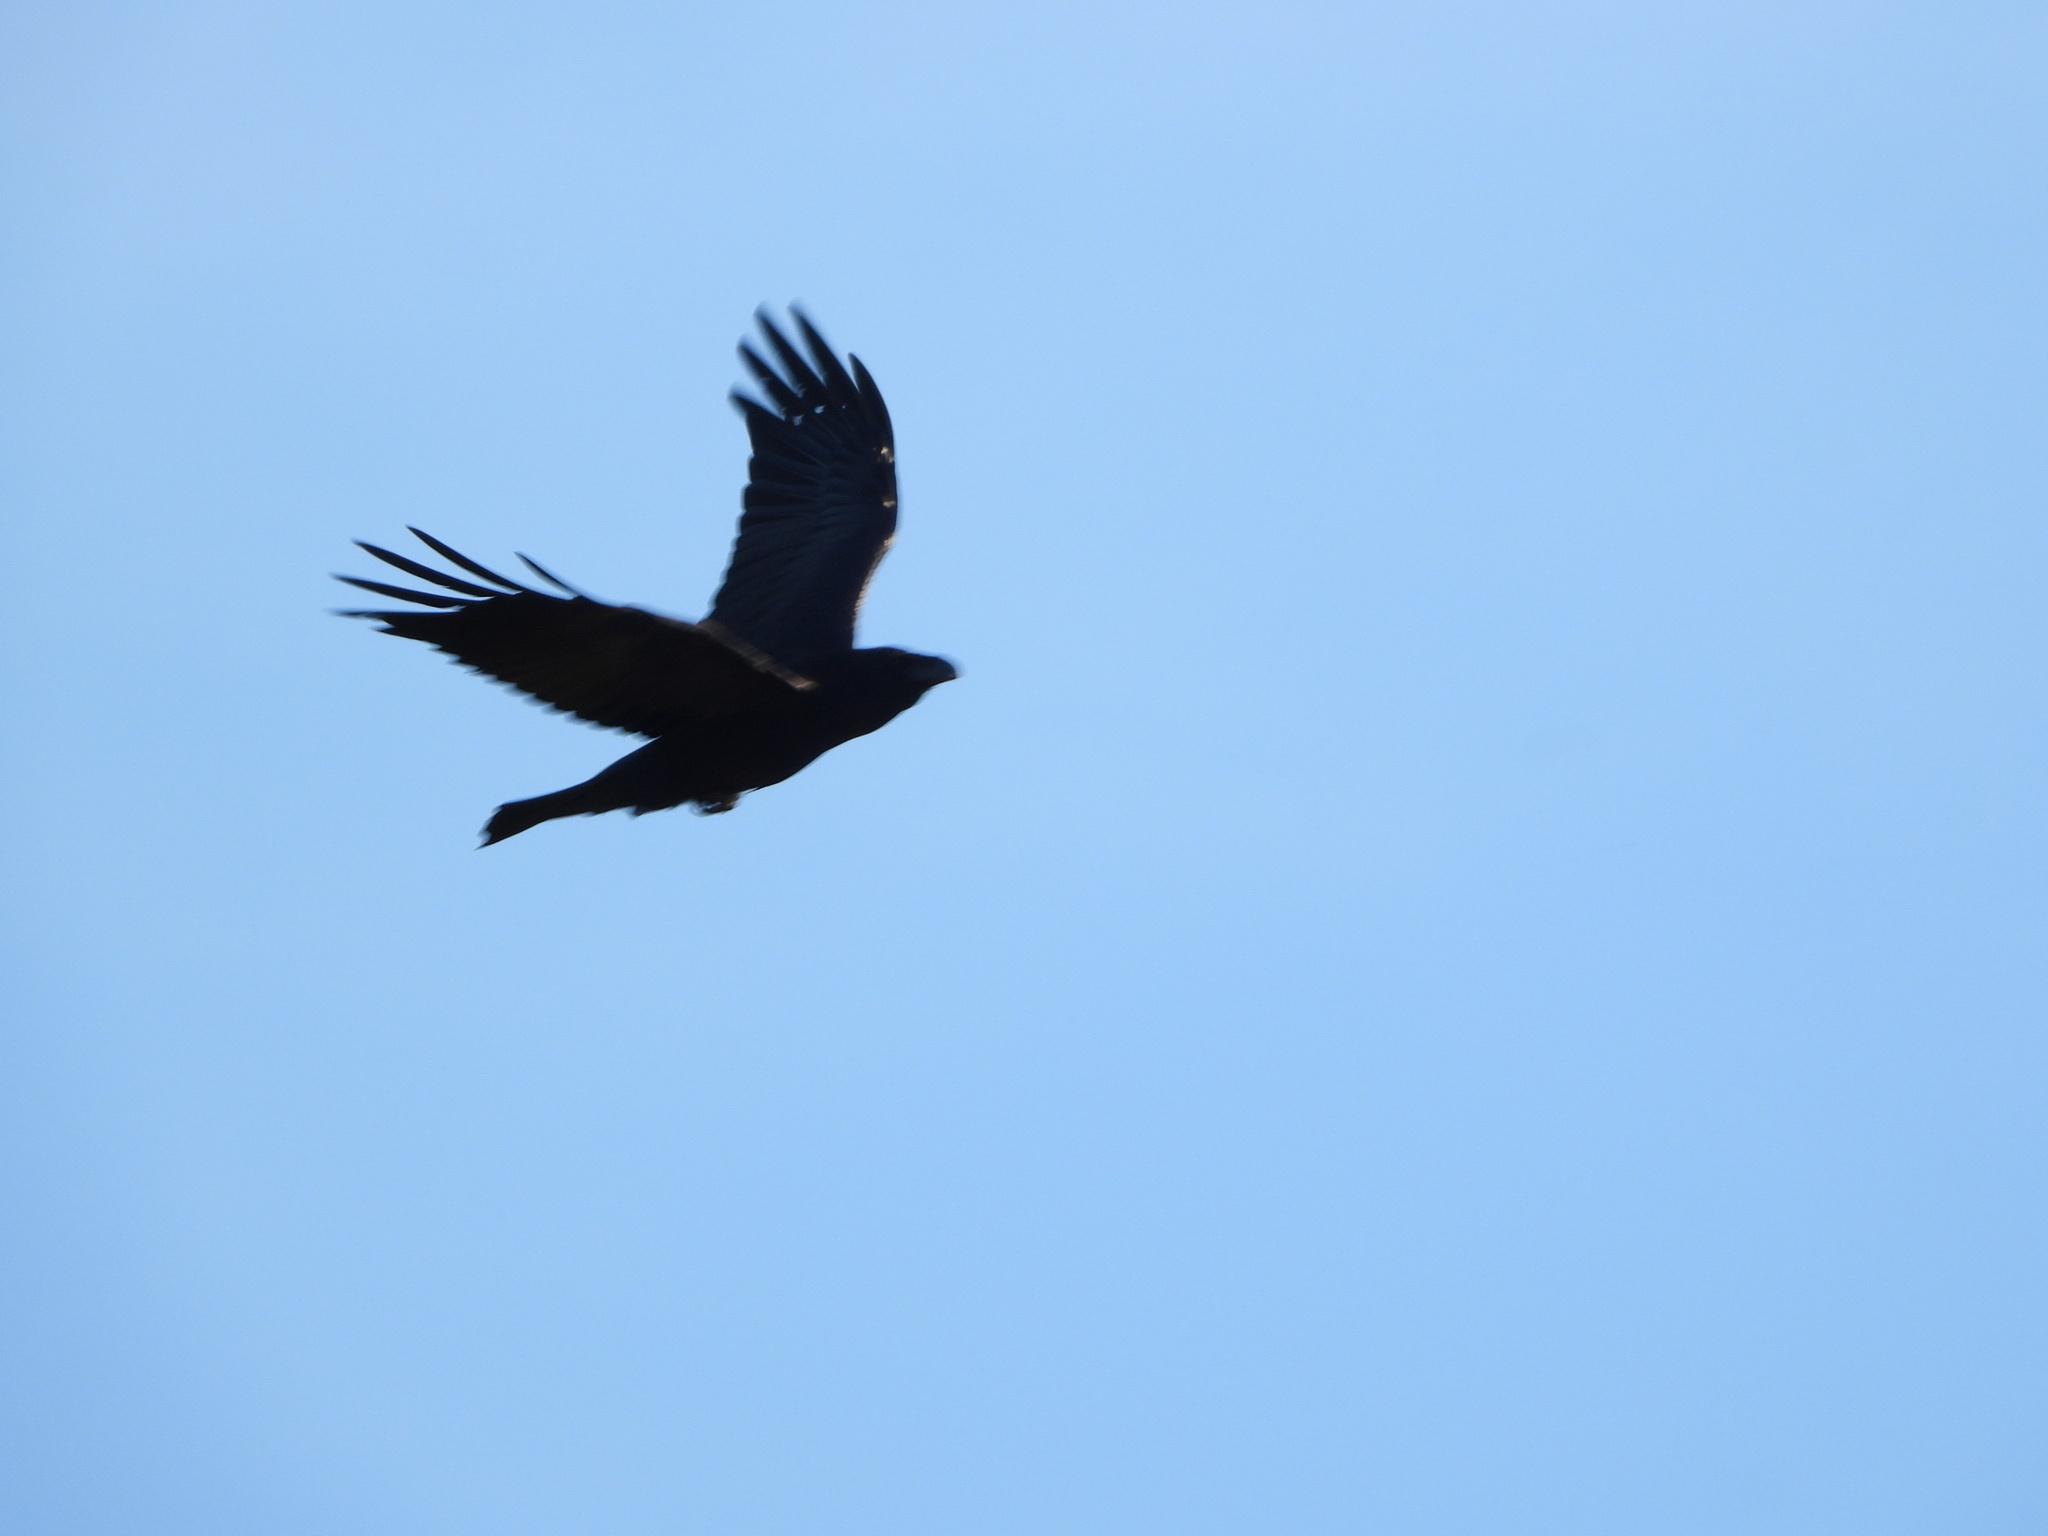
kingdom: Animalia
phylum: Chordata
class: Aves
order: Passeriformes
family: Corvidae
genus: Corvus
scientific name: Corvus corax
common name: Common raven
